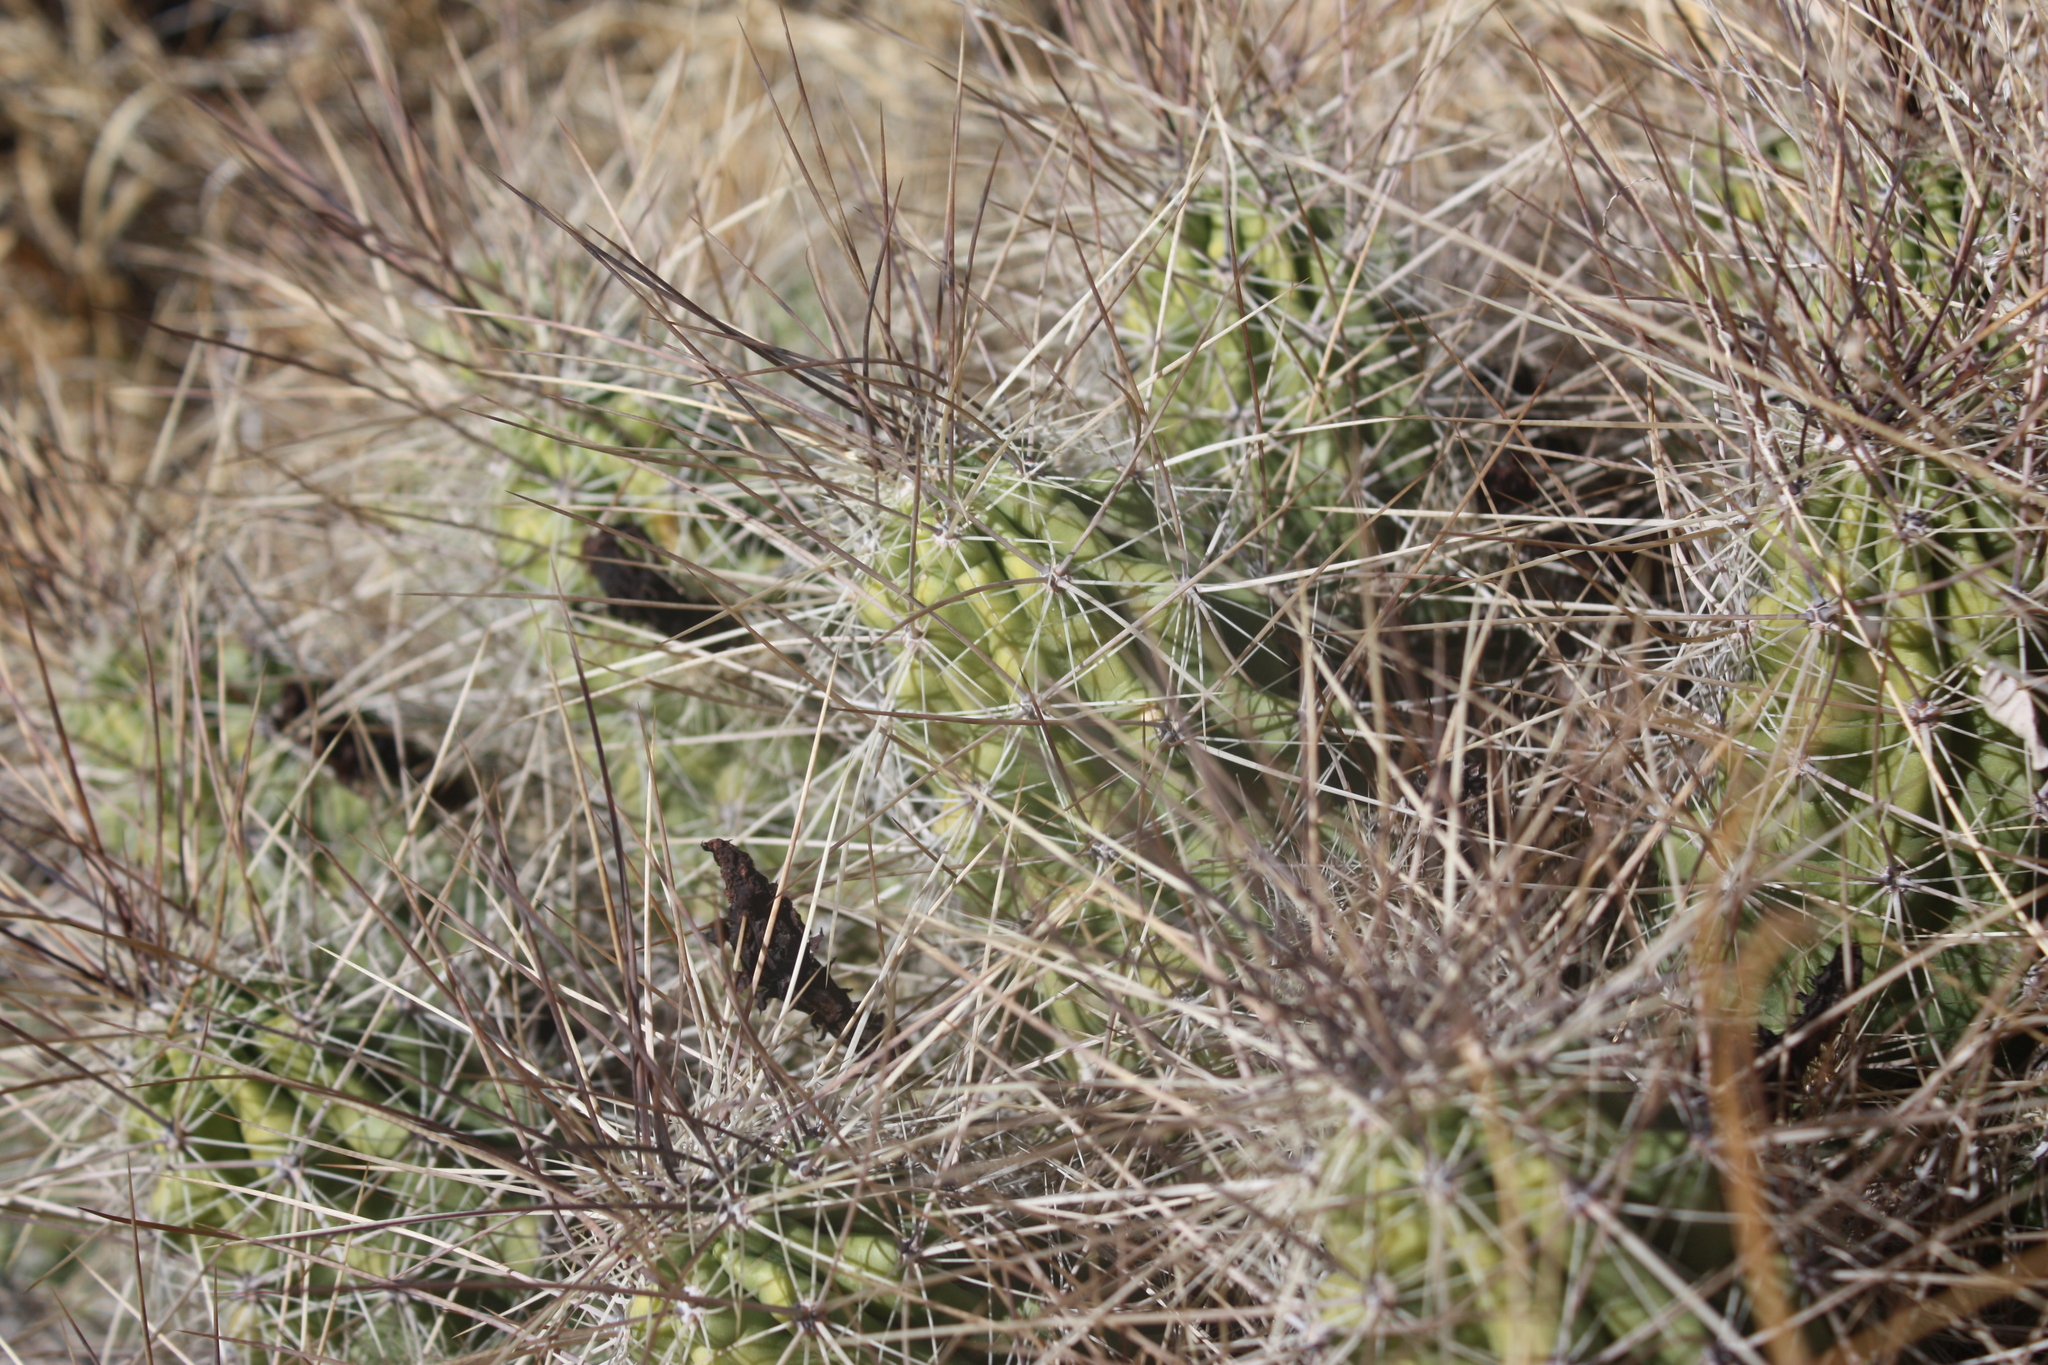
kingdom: Plantae
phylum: Tracheophyta
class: Magnoliopsida
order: Caryophyllales
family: Cactaceae
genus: Echinocereus
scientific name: Echinocereus enneacanthus
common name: Pitaya
